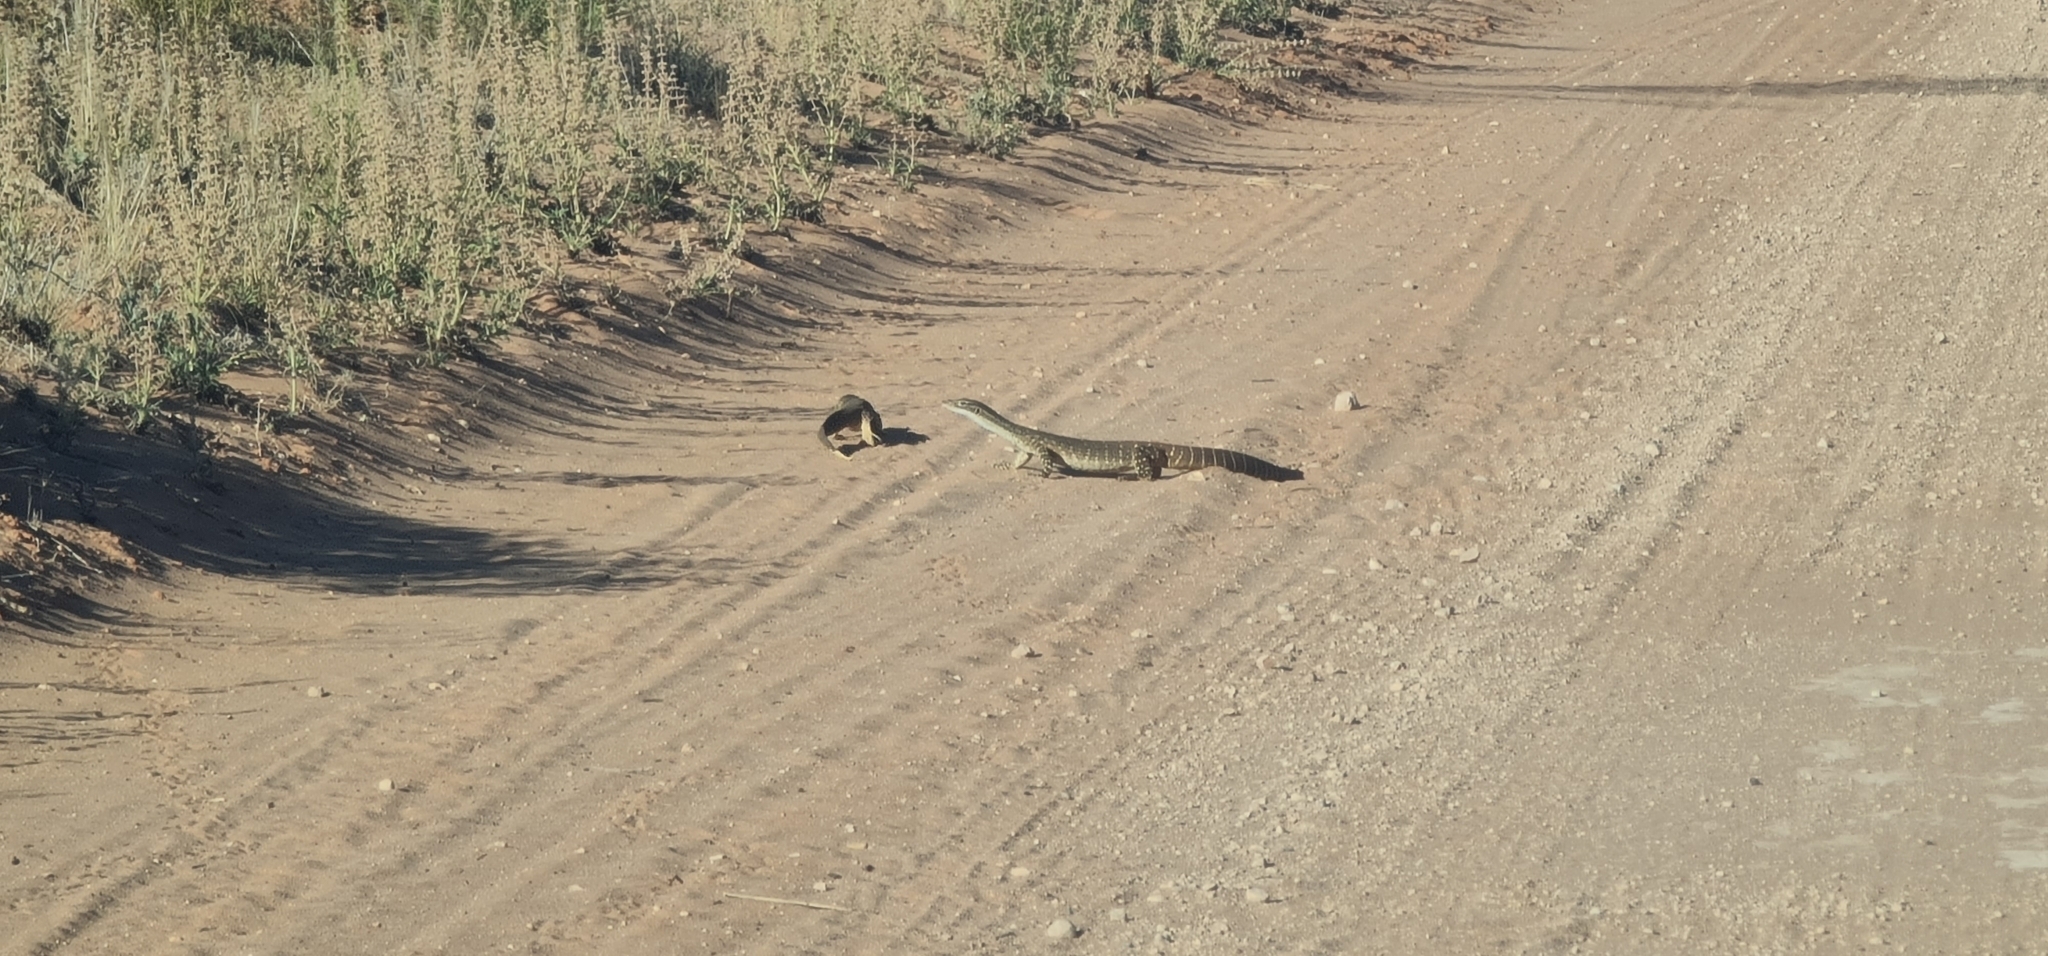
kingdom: Animalia
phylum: Chordata
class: Squamata
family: Varanidae
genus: Varanus
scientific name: Varanus gouldii
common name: Gould's goanna
